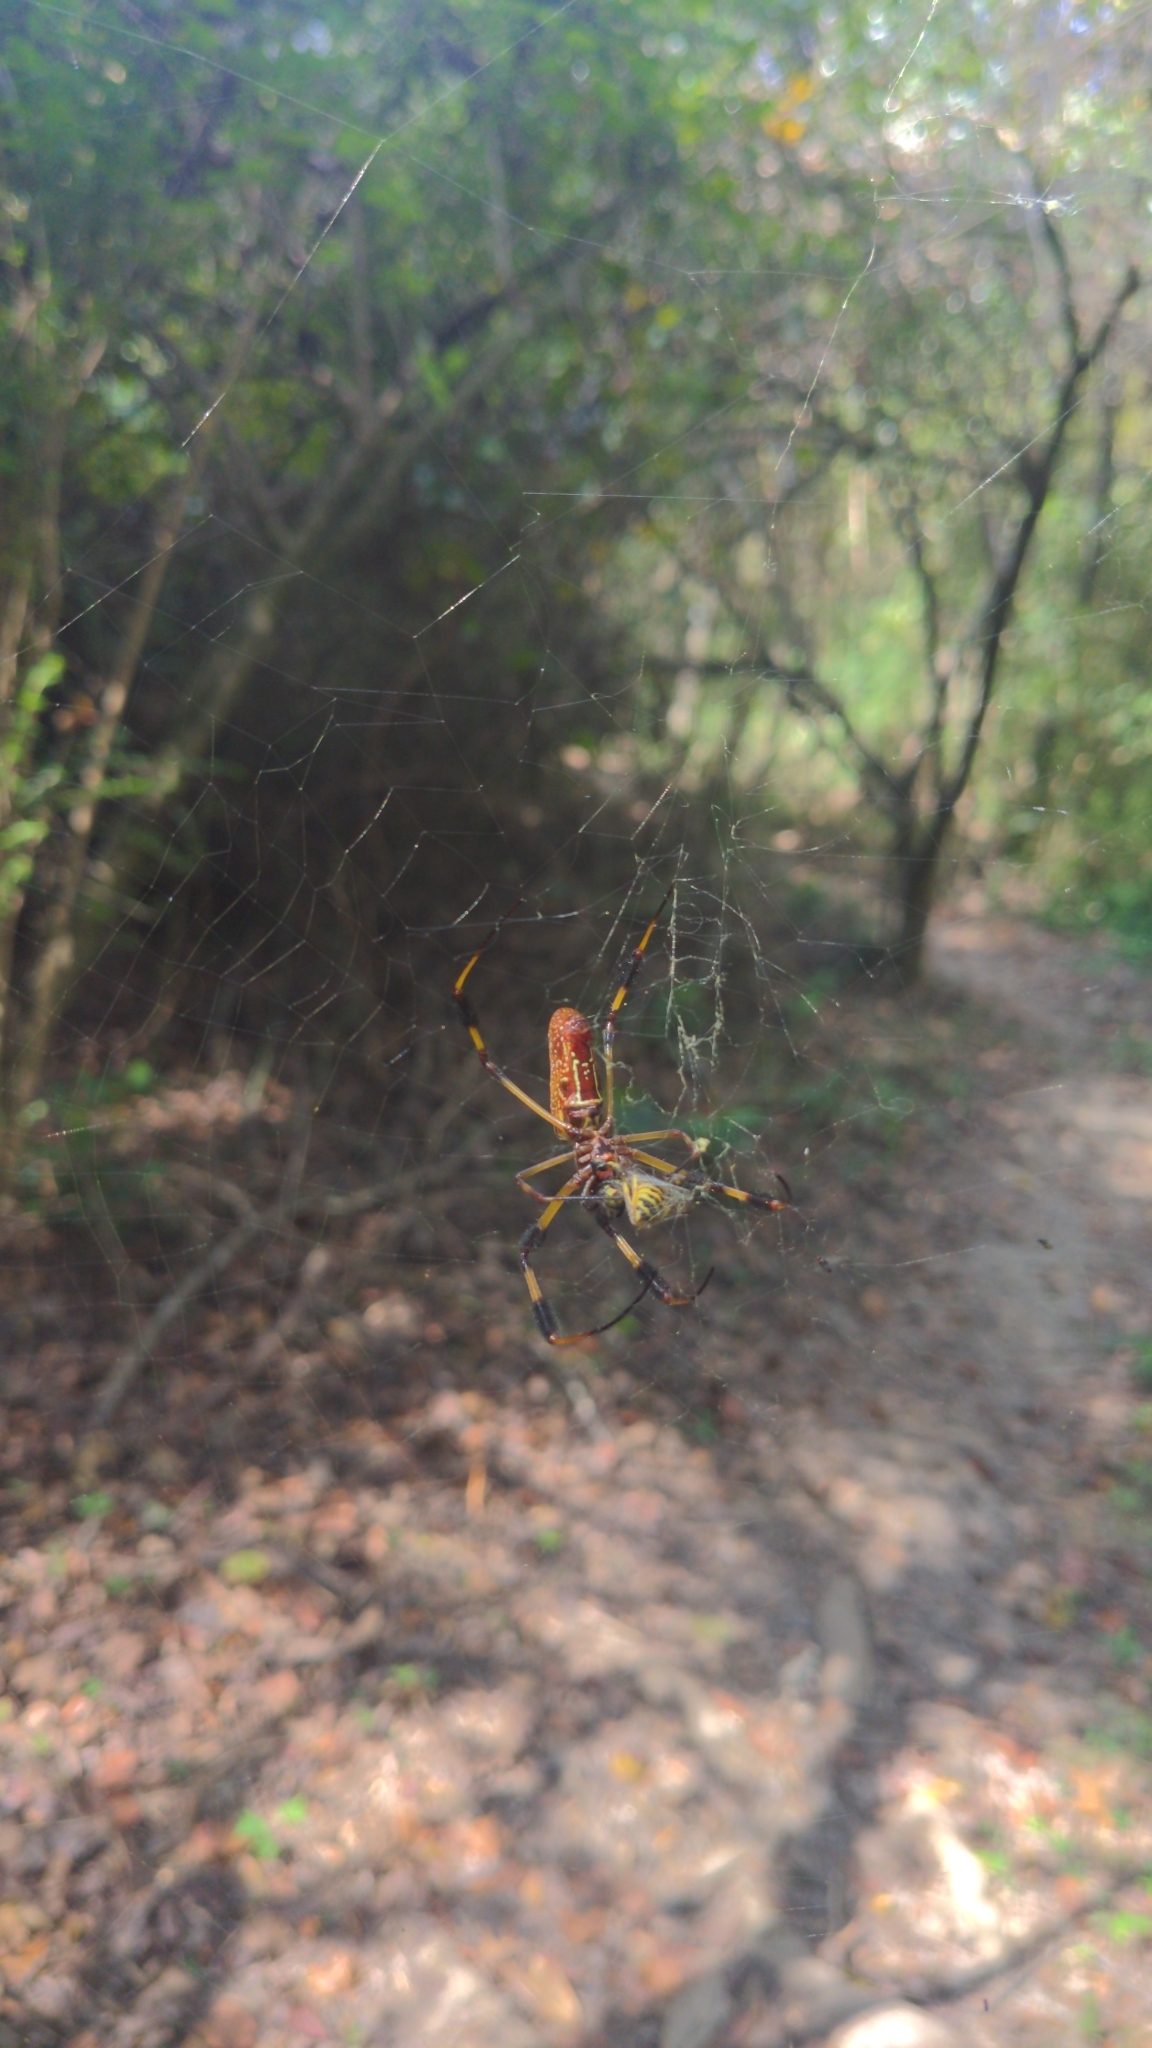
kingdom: Animalia
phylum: Arthropoda
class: Arachnida
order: Araneae
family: Araneidae
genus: Trichonephila
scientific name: Trichonephila clavipes
